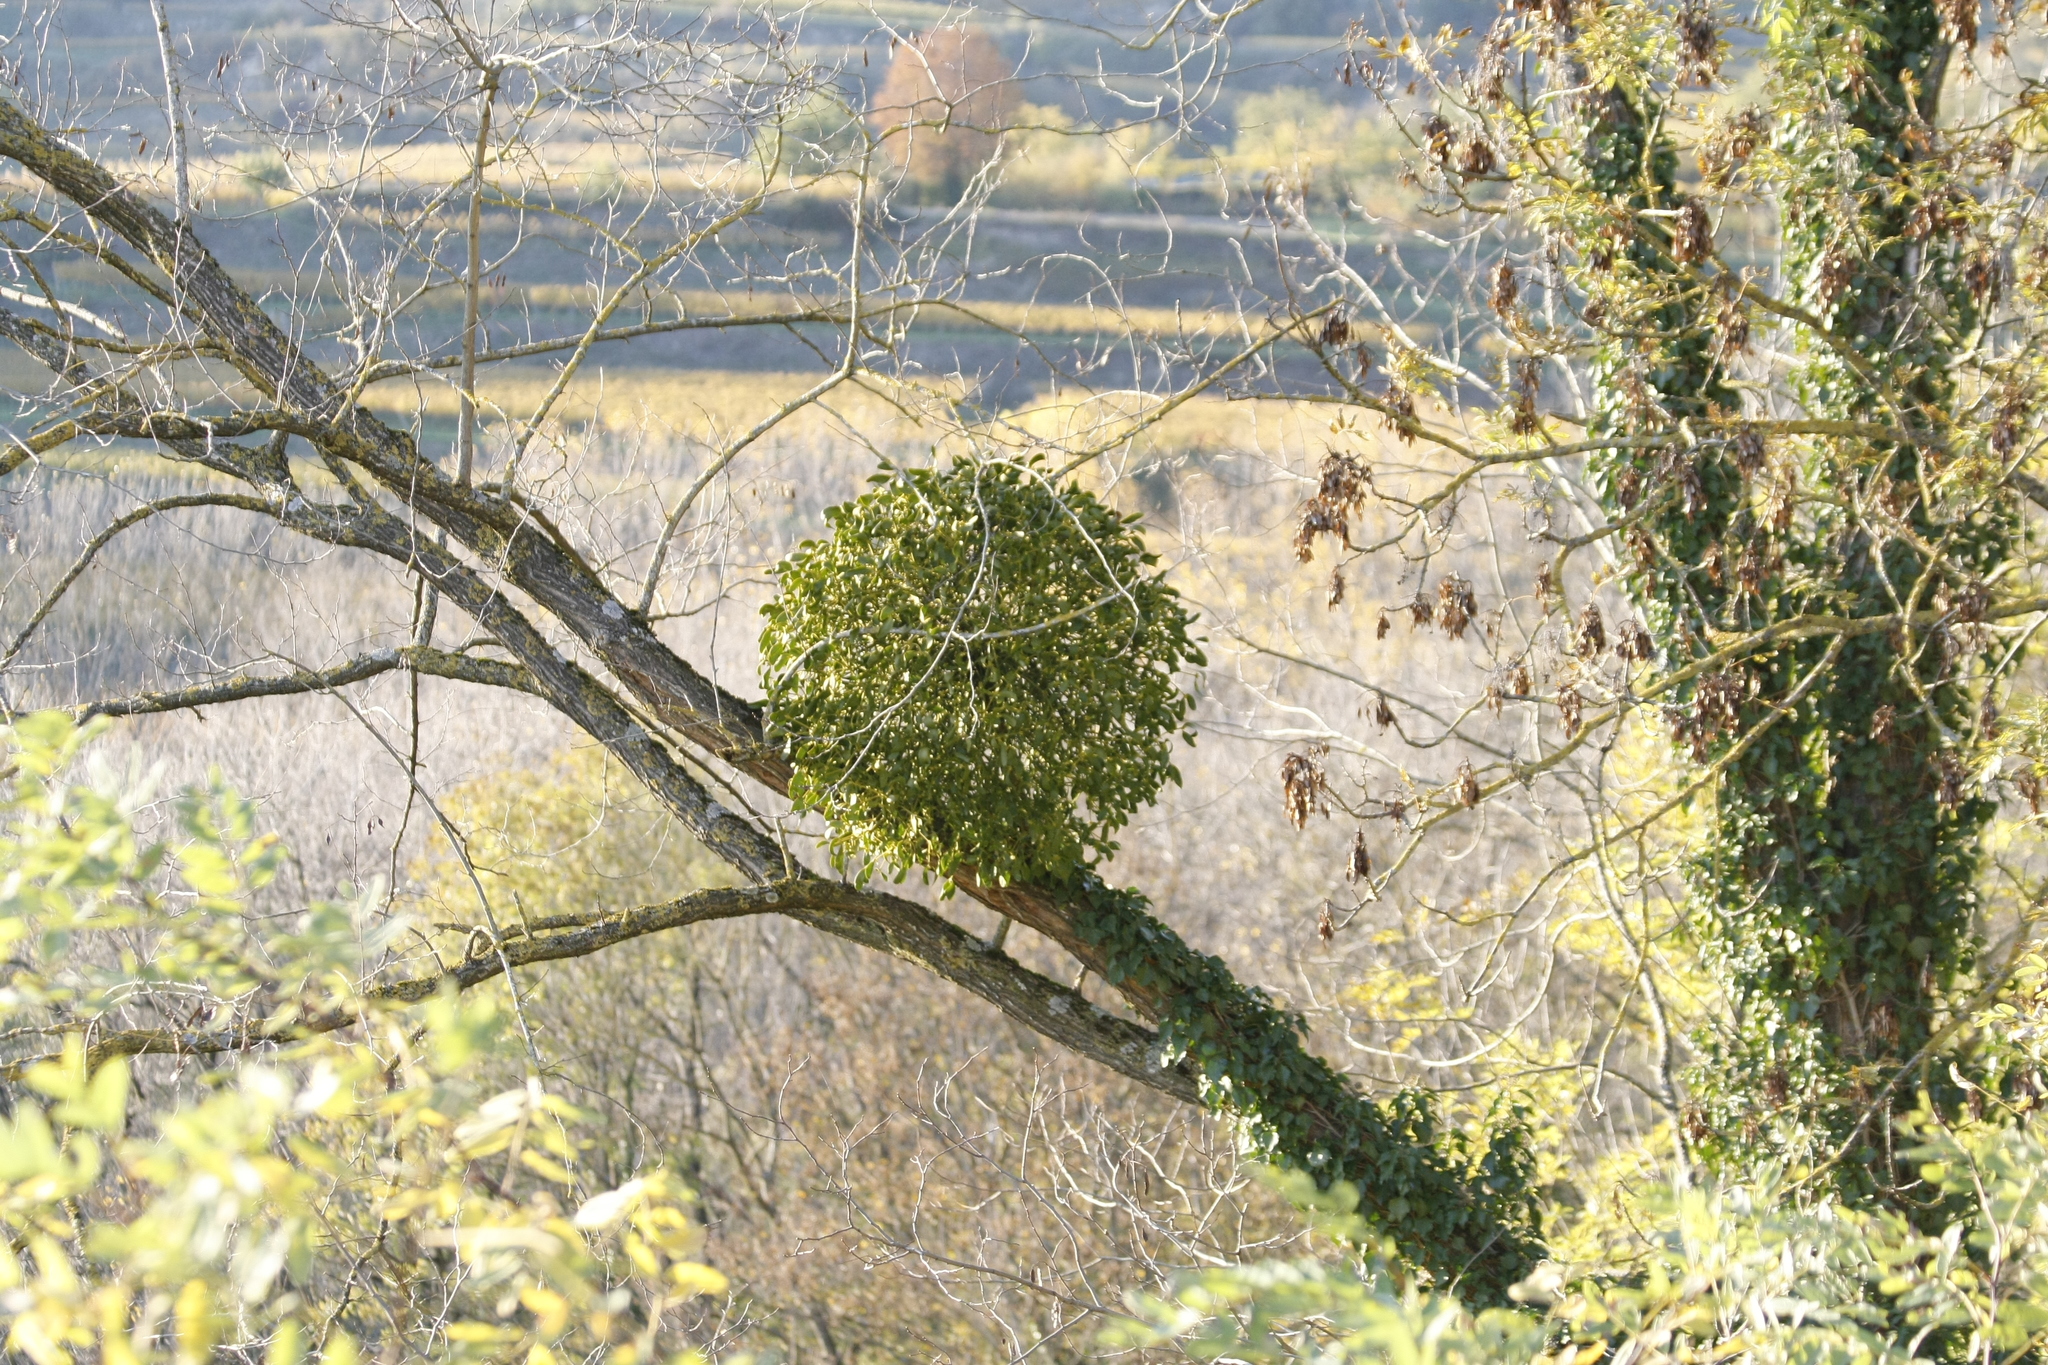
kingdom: Plantae
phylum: Tracheophyta
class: Magnoliopsida
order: Santalales
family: Viscaceae
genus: Viscum
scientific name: Viscum album
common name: Mistletoe
